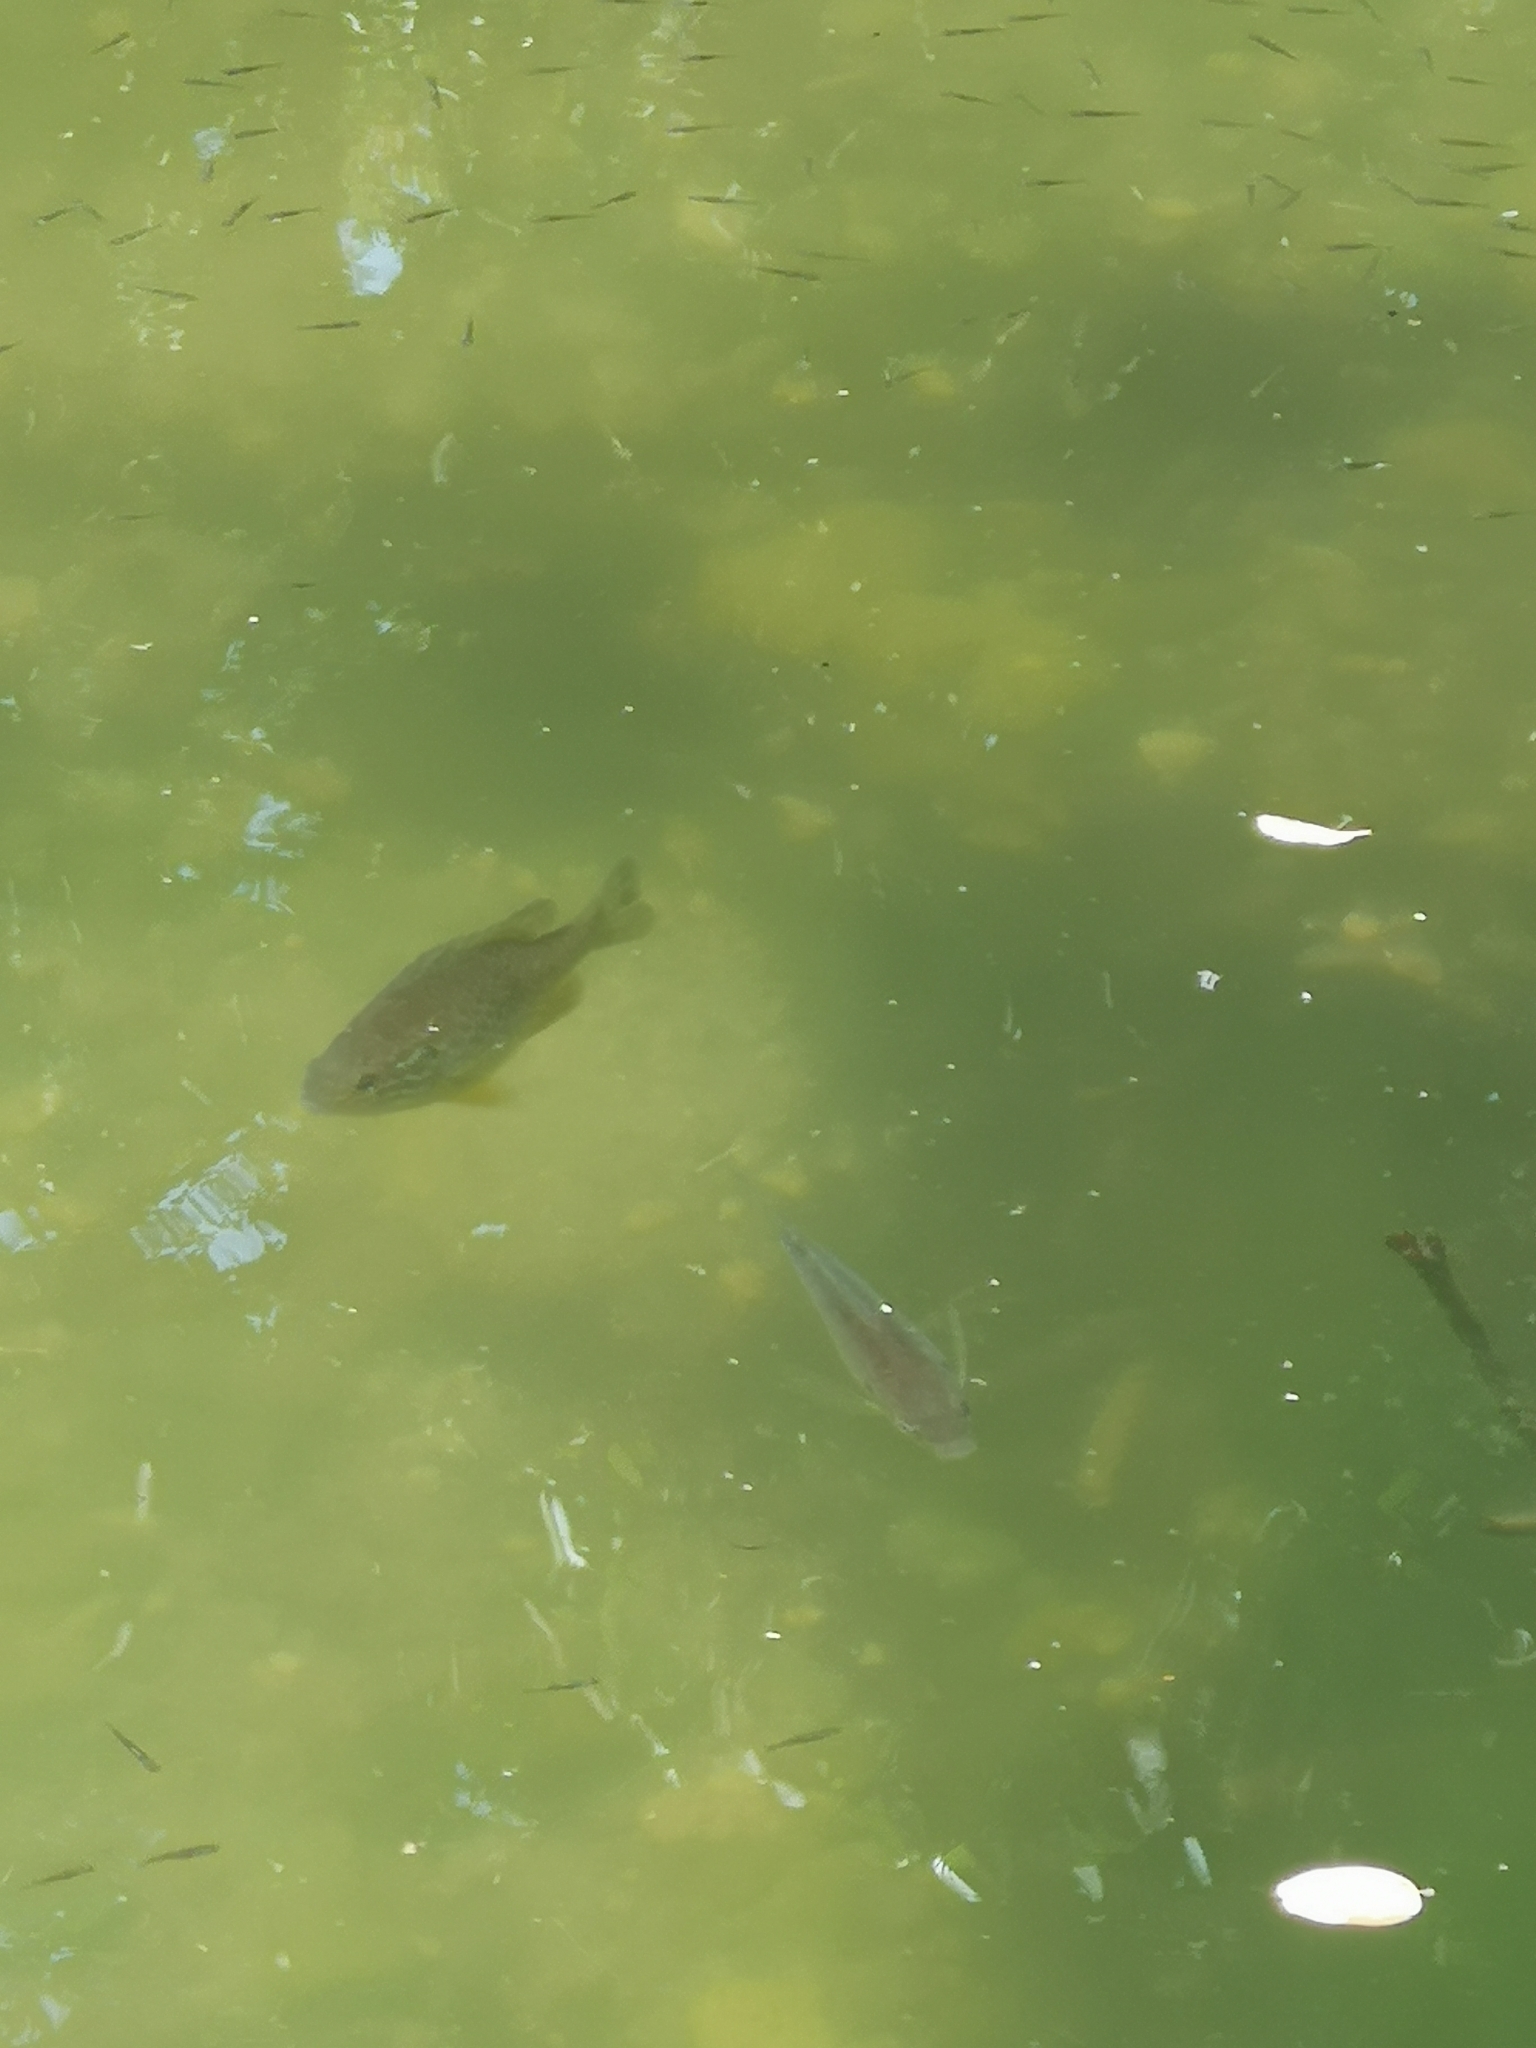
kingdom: Animalia
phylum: Chordata
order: Perciformes
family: Centrarchidae
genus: Lepomis
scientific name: Lepomis gibbosus
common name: Pumpkinseed
